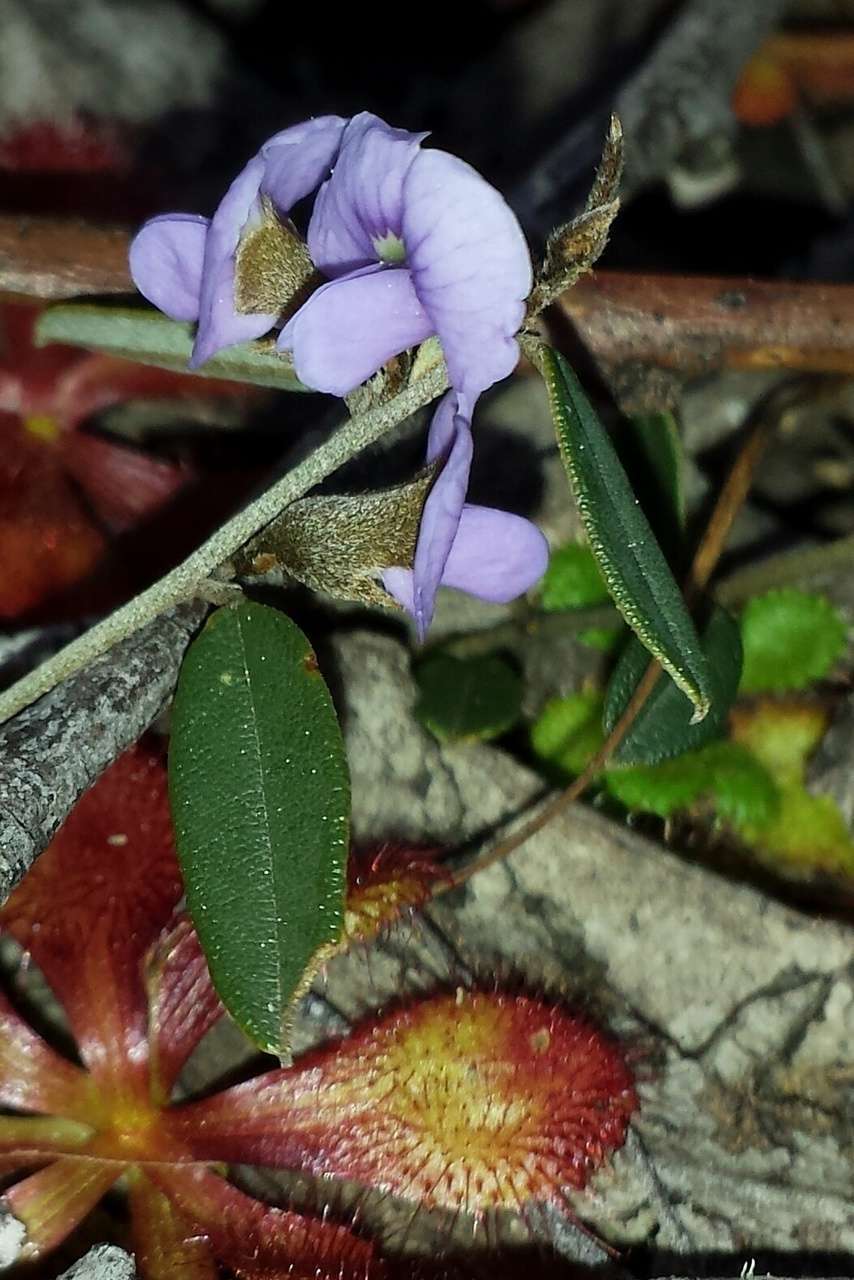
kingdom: Plantae
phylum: Tracheophyta
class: Magnoliopsida
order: Fabales
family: Fabaceae
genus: Hovea
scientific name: Hovea heterophylla
